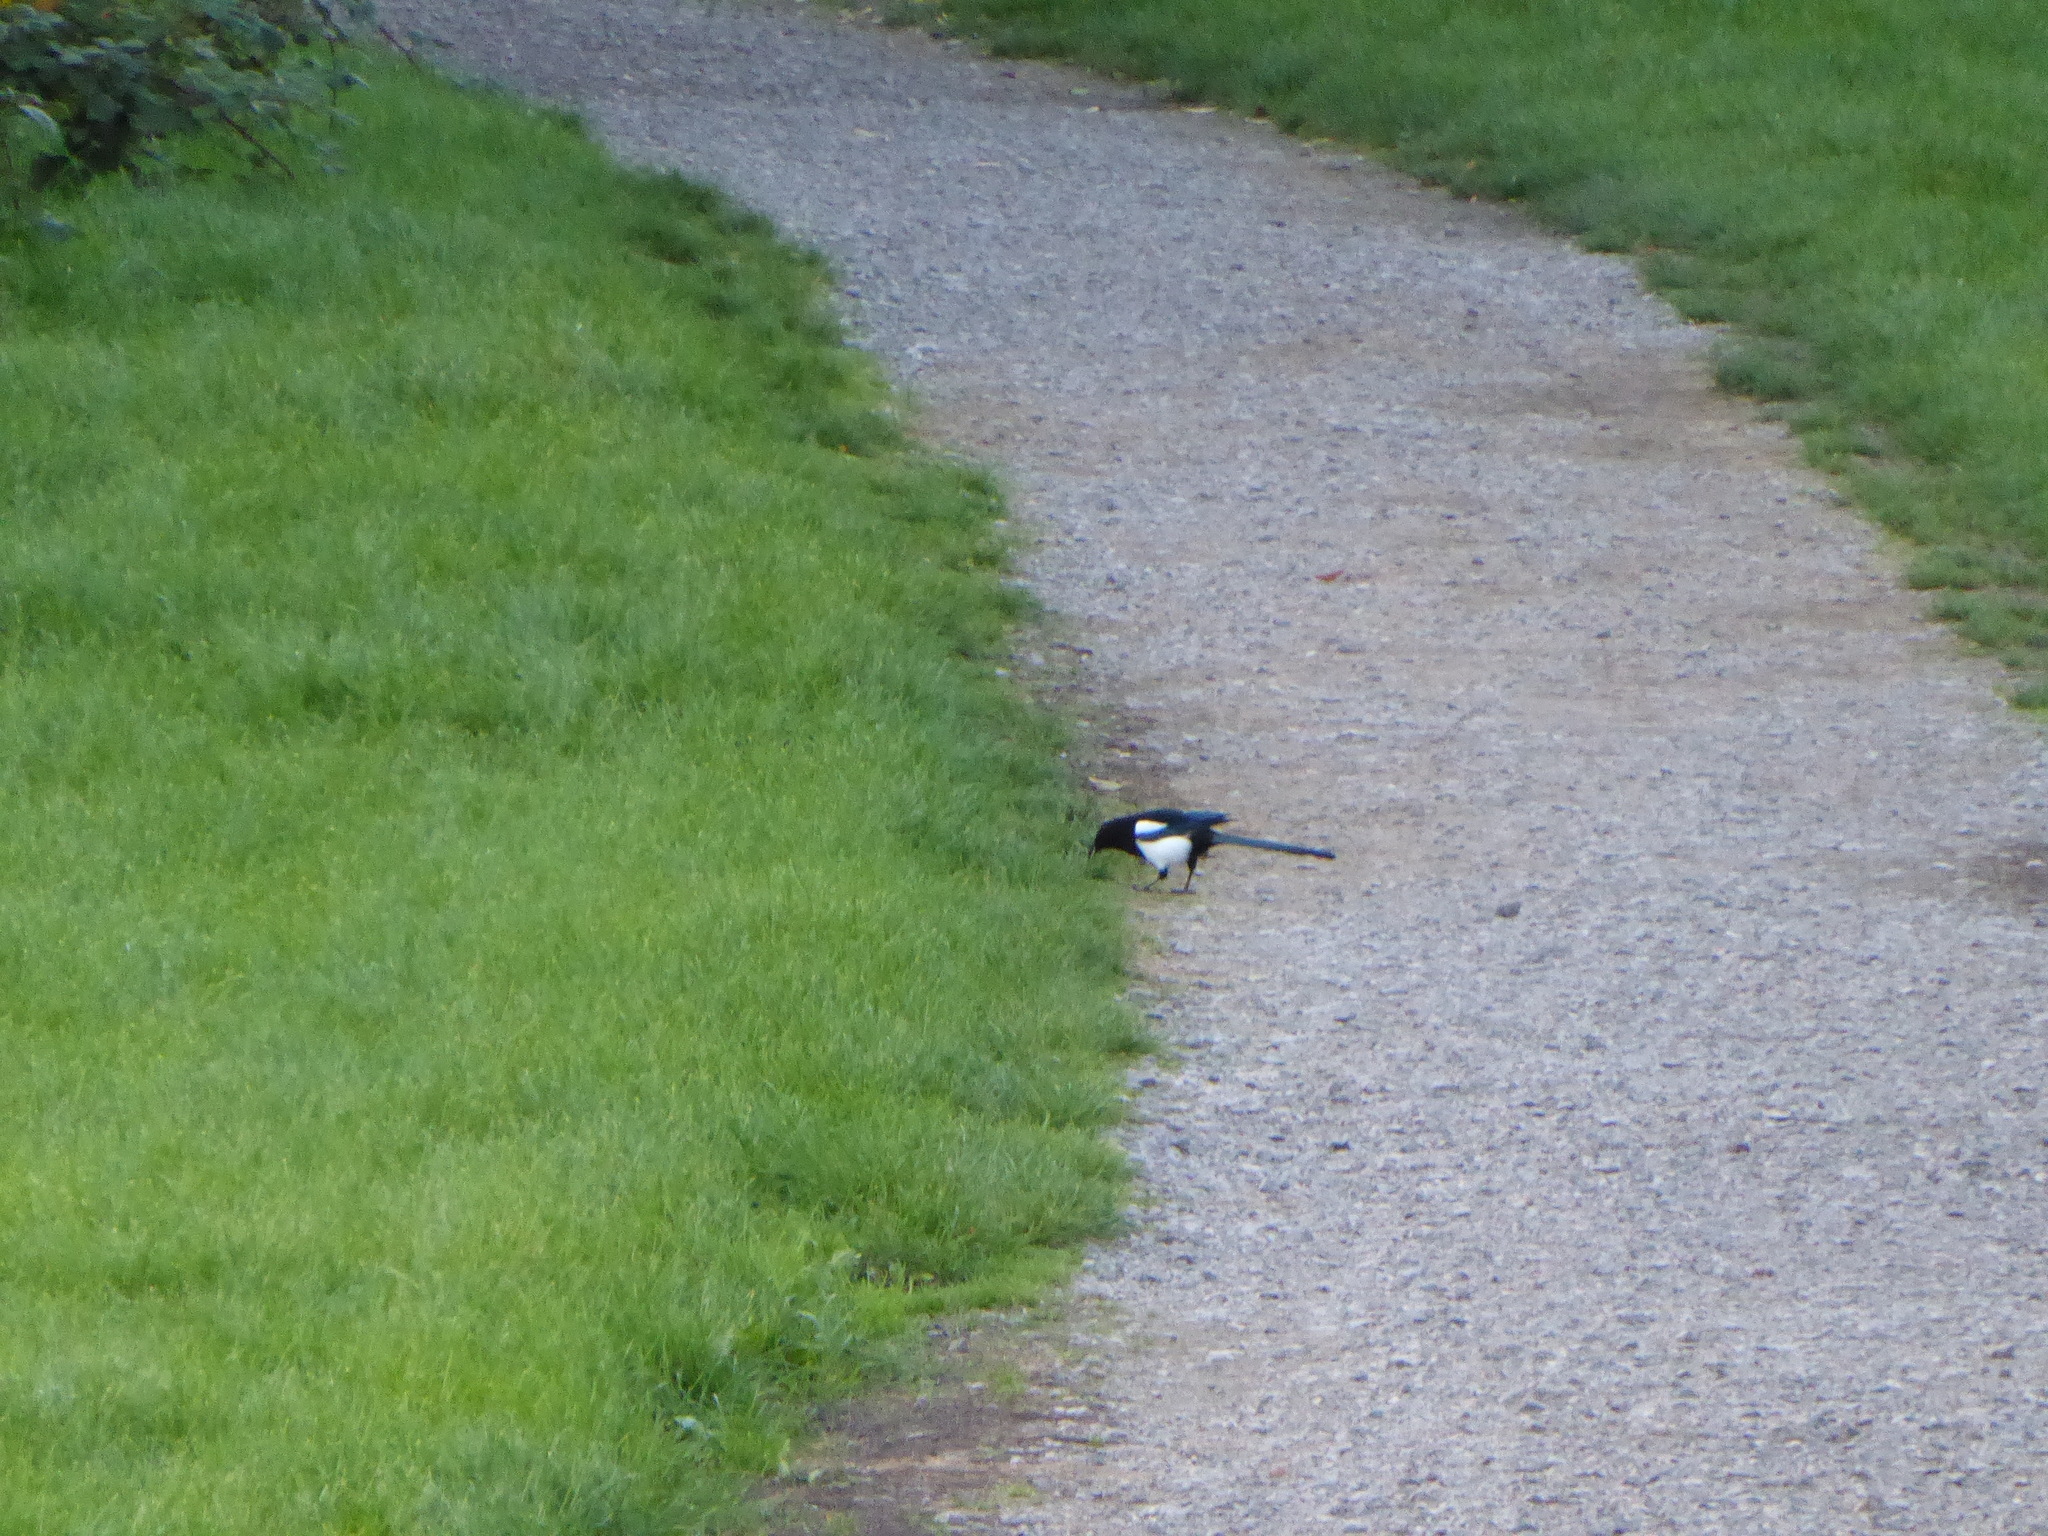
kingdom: Animalia
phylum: Chordata
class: Aves
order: Passeriformes
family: Corvidae
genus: Pica
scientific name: Pica pica
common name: Eurasian magpie
